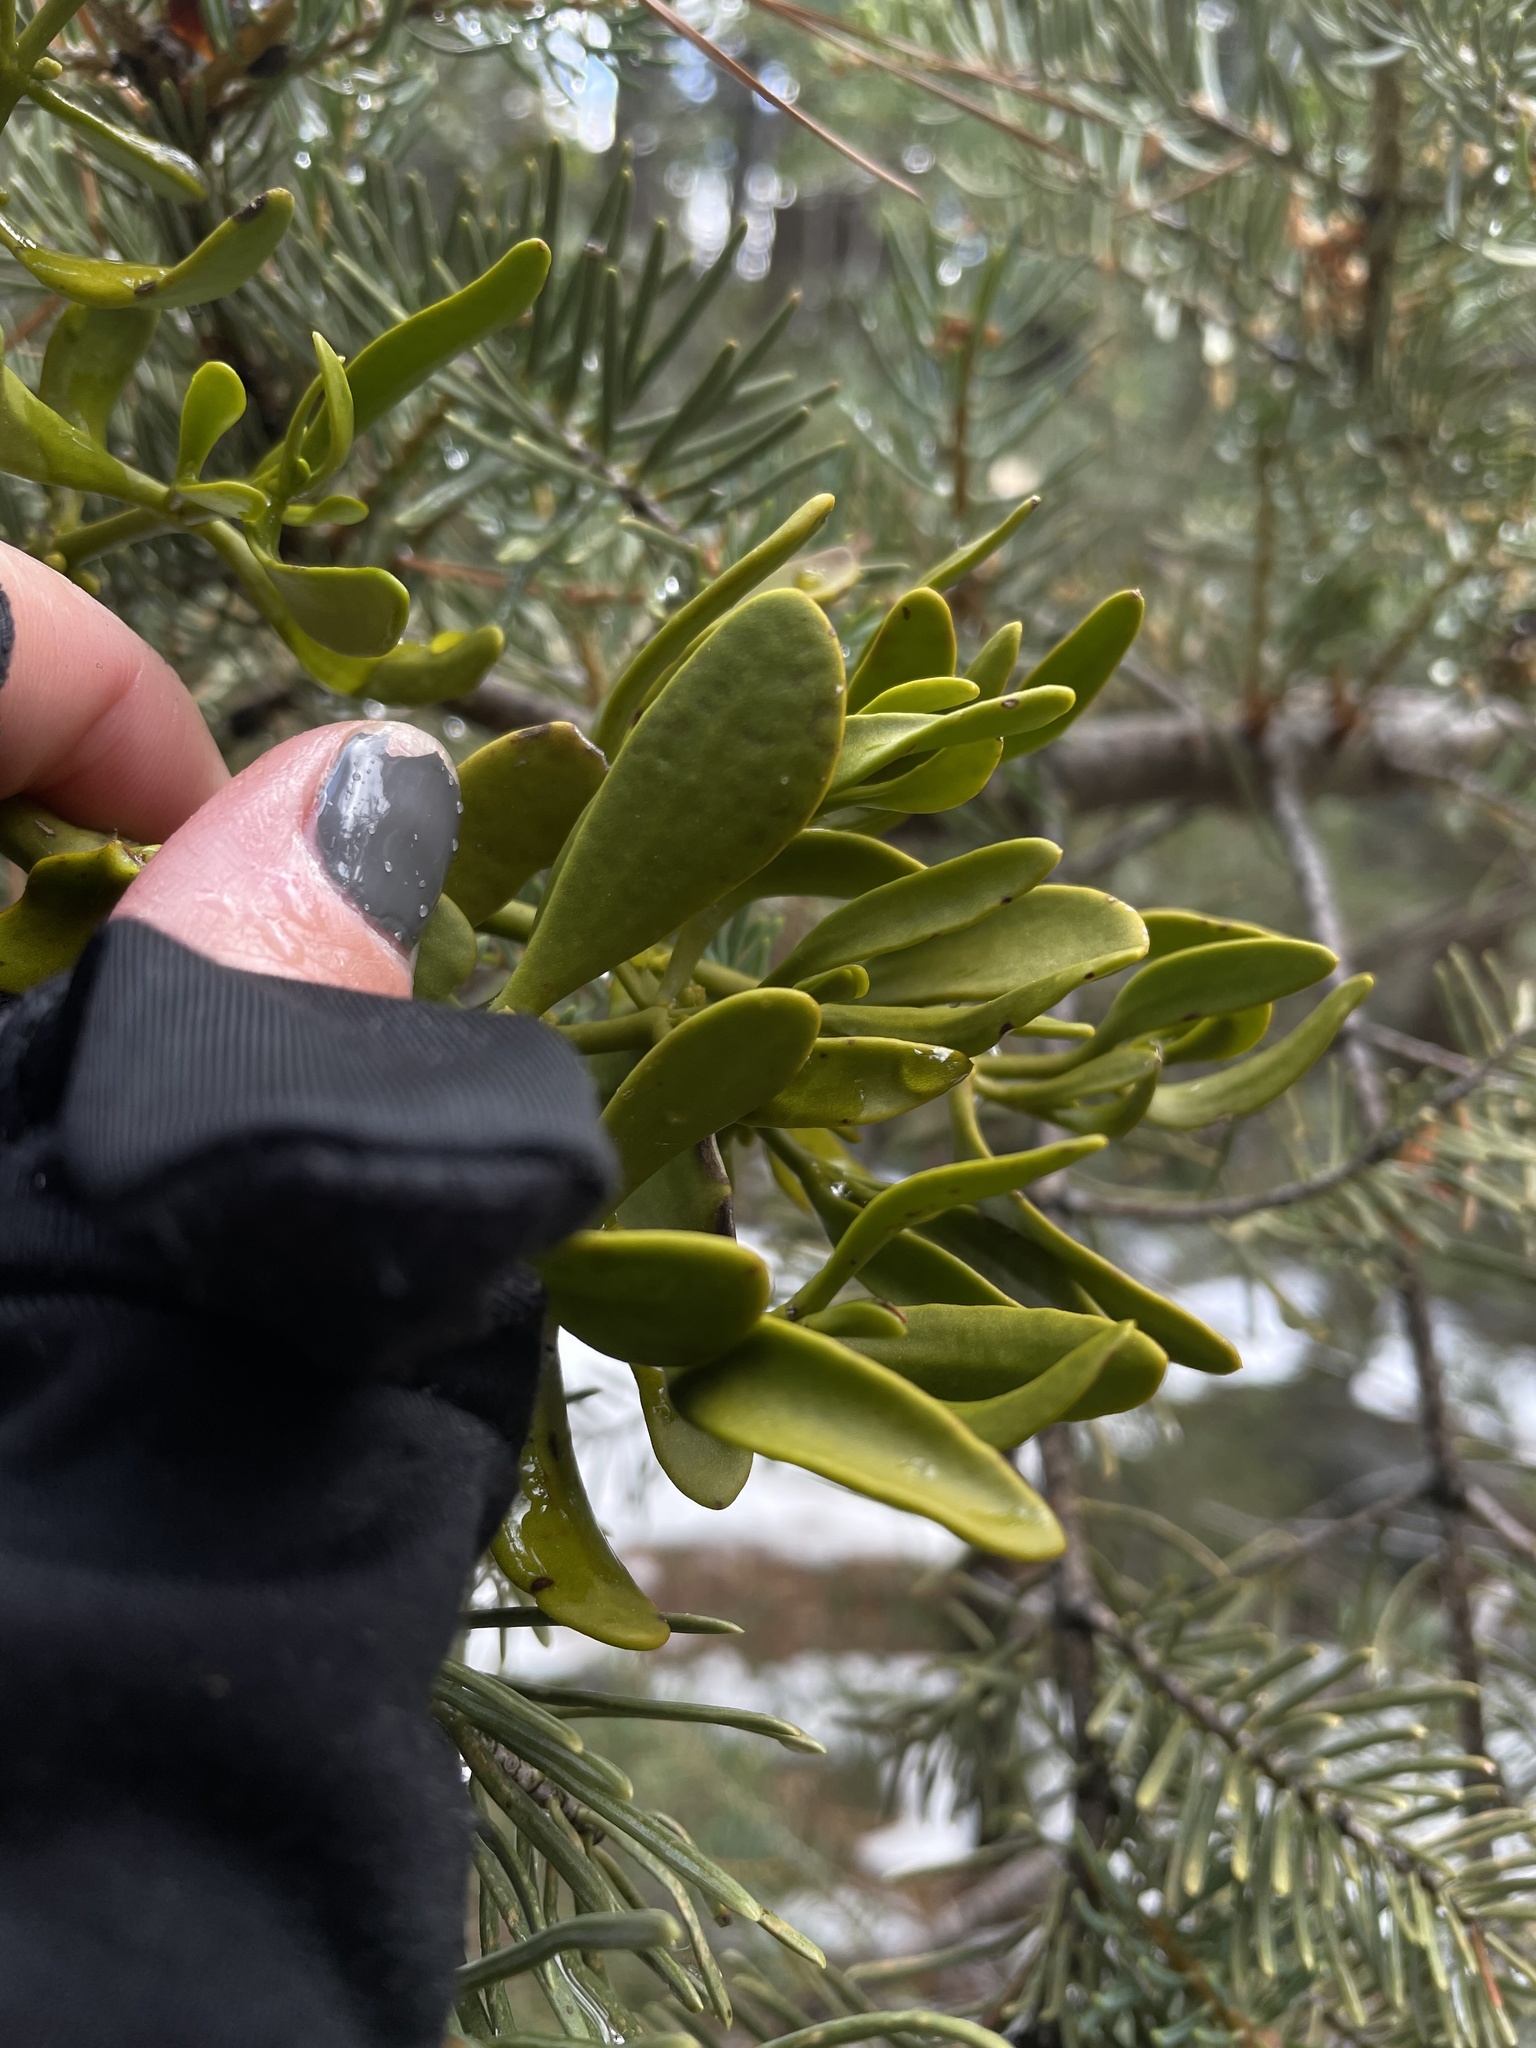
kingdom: Plantae
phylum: Tracheophyta
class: Magnoliopsida
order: Santalales
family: Viscaceae
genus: Phoradendron
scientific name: Phoradendron pauciflorum
